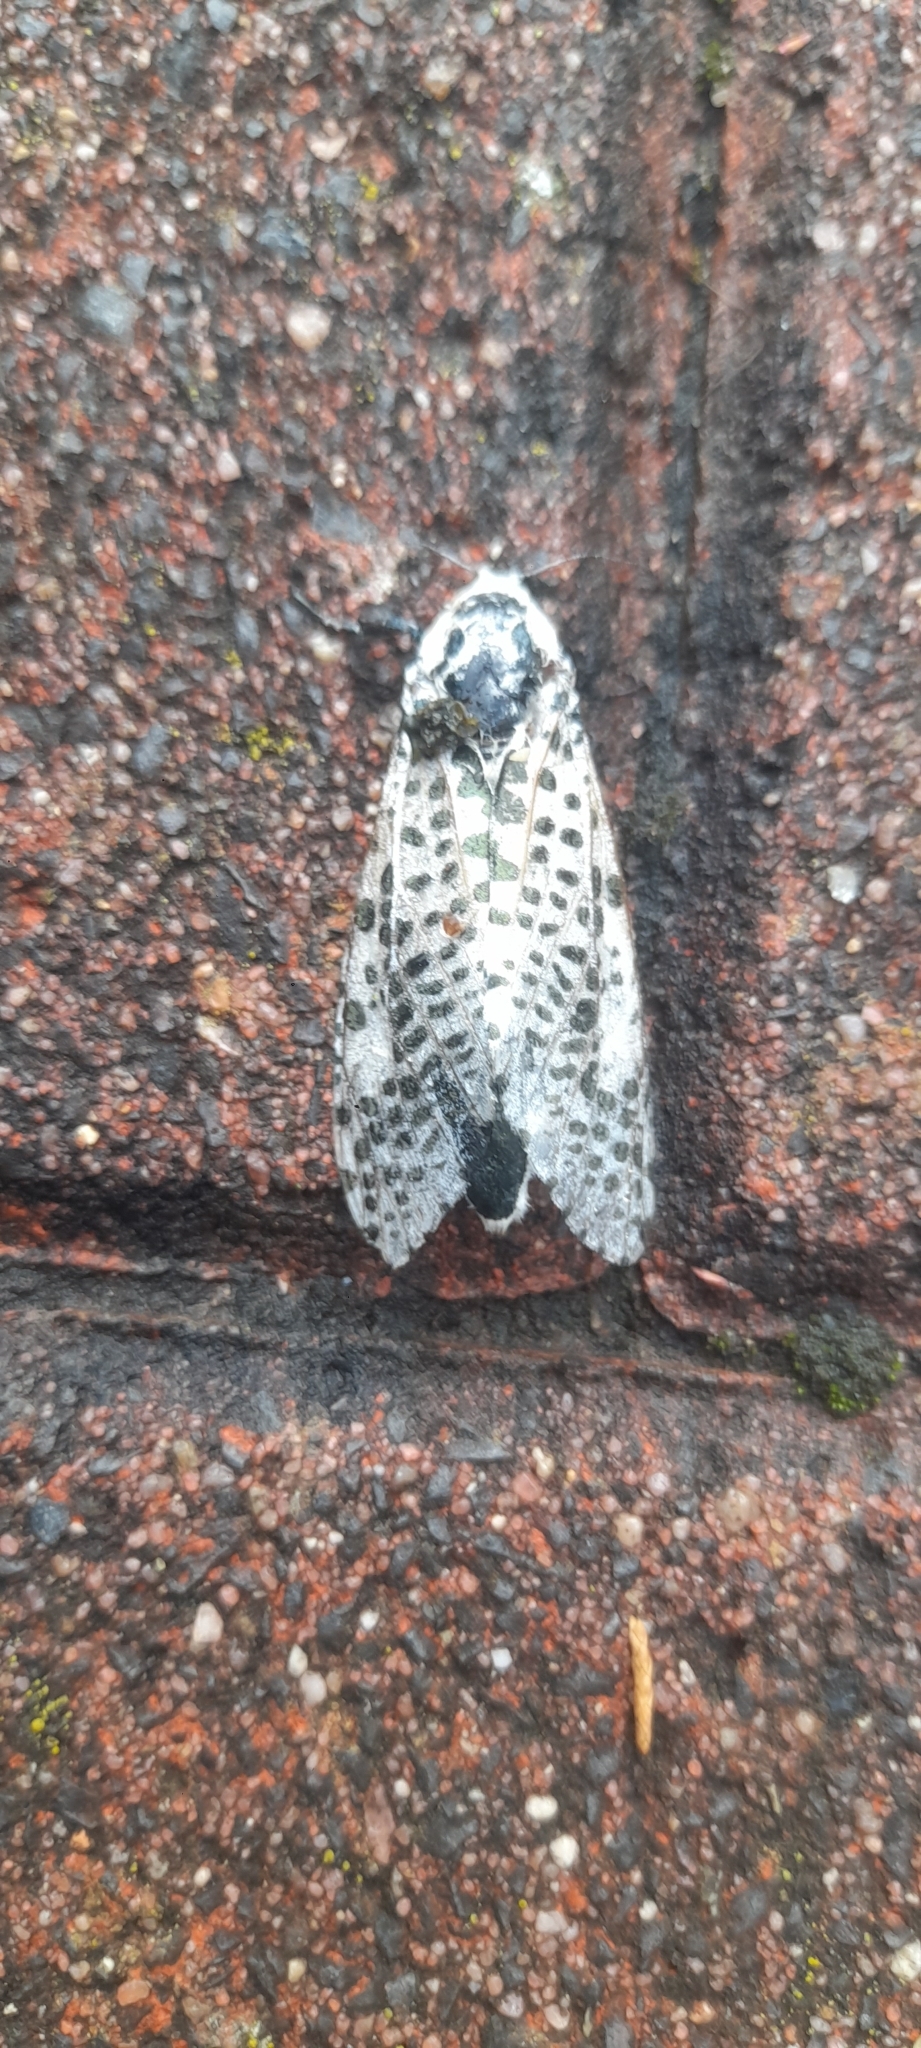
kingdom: Animalia
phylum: Arthropoda
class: Insecta
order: Lepidoptera
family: Cossidae
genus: Zeuzera
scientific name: Zeuzera pyrina
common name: Leopard moth
